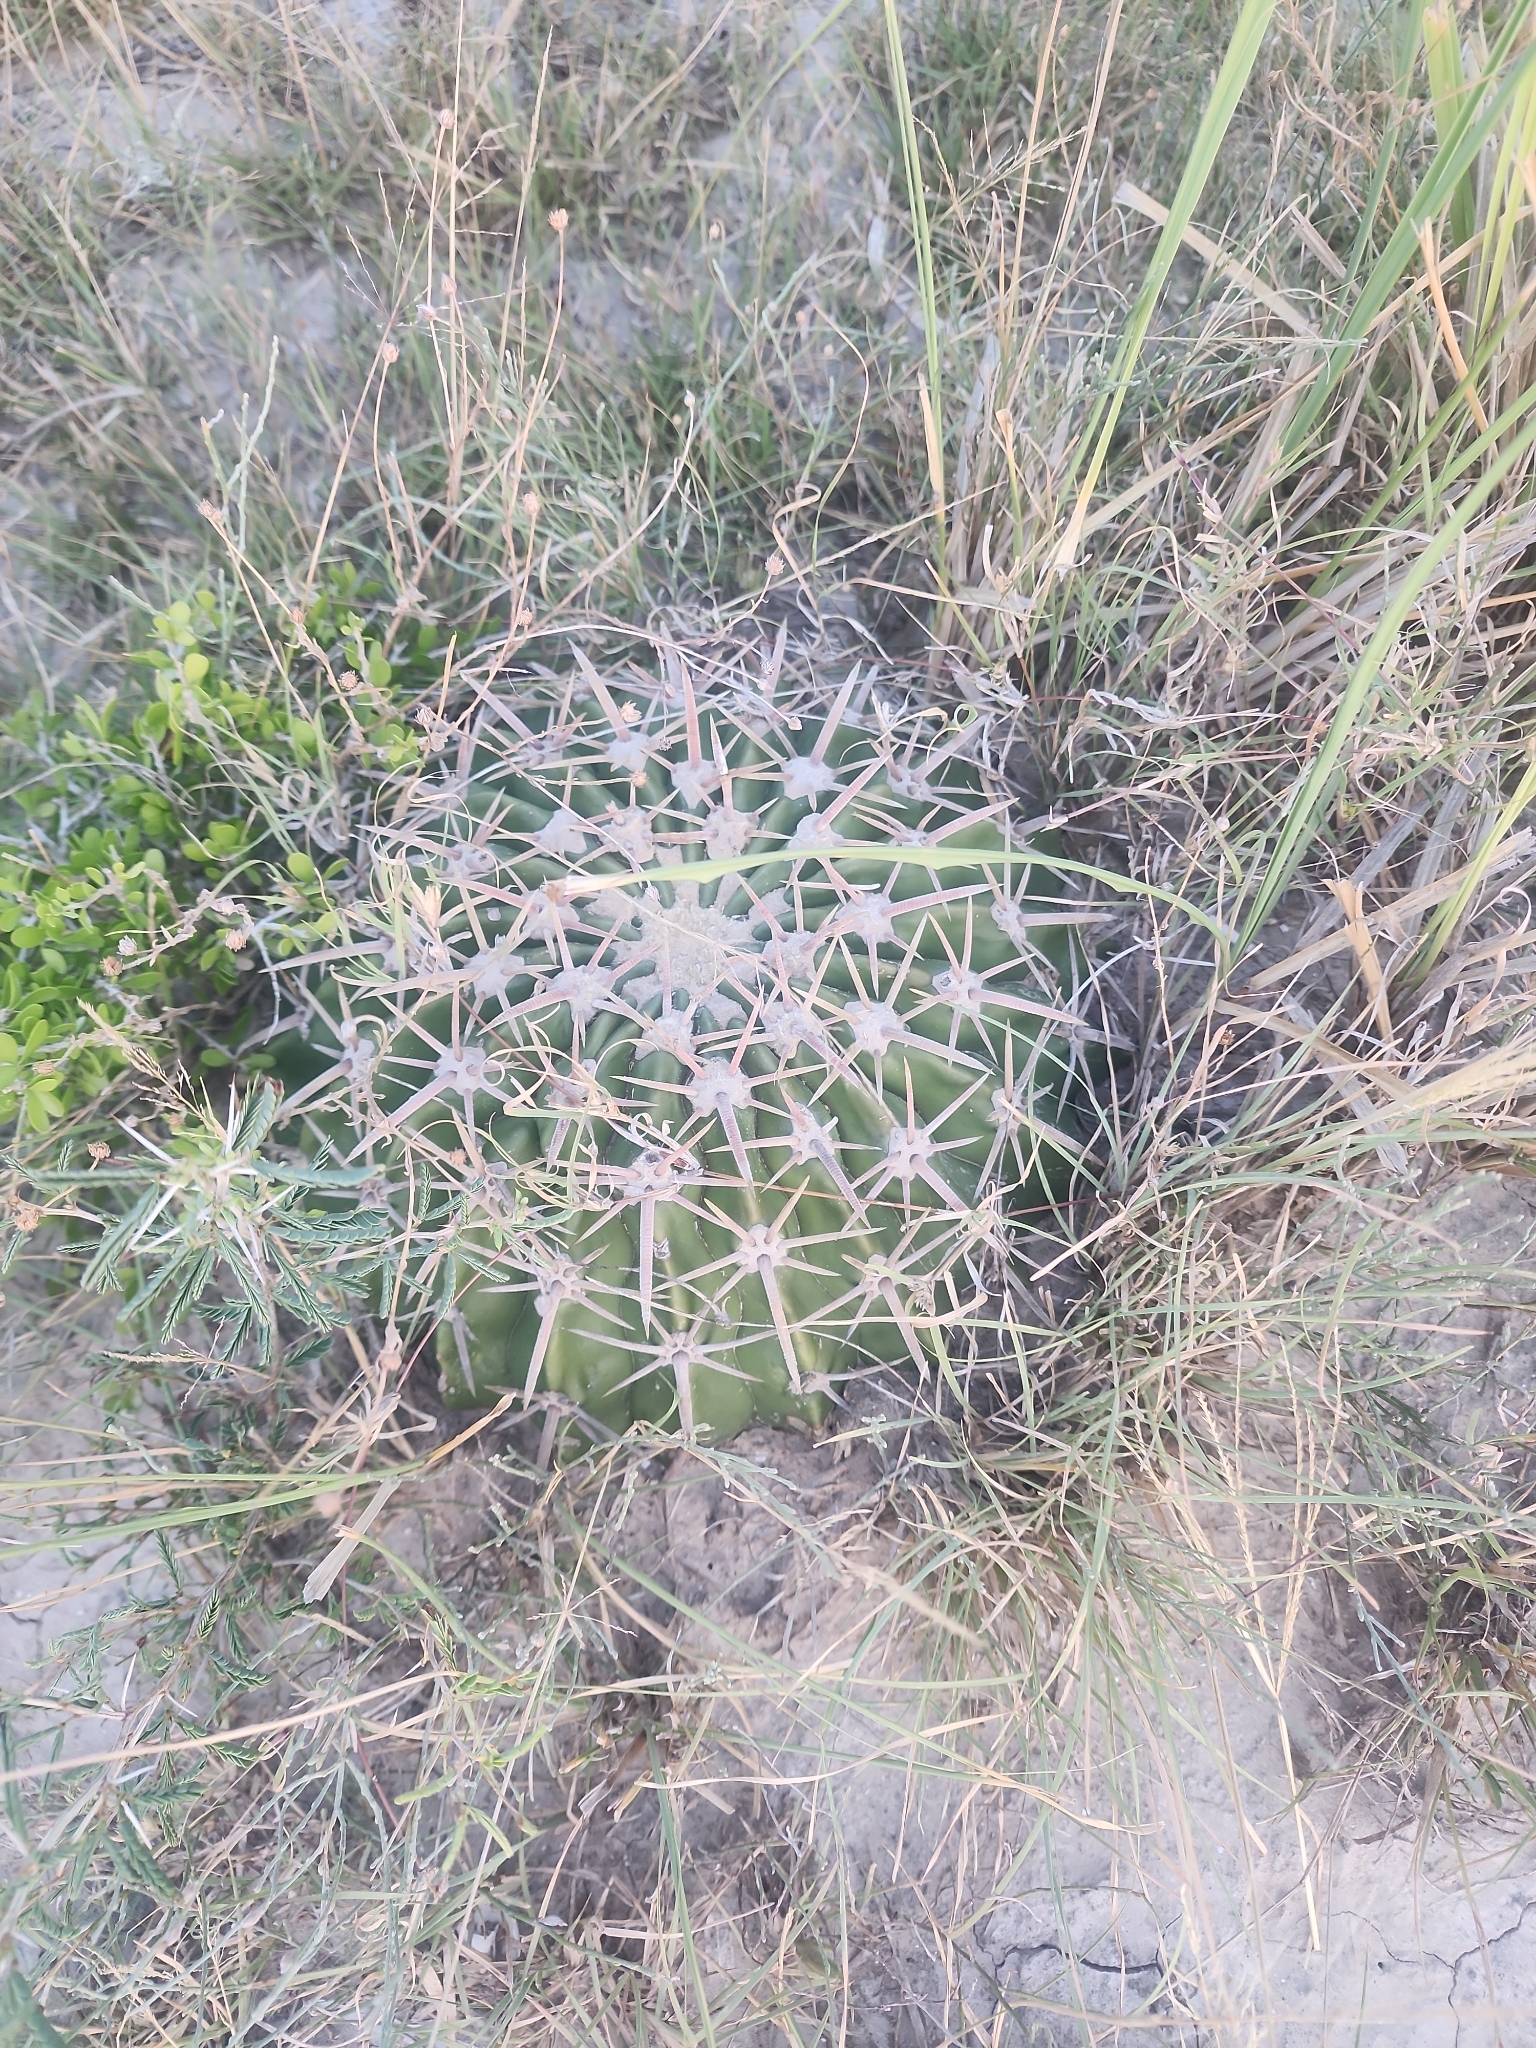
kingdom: Plantae
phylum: Tracheophyta
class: Magnoliopsida
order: Caryophyllales
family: Cactaceae
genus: Echinocactus
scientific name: Echinocactus texensis
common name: Devil's pincushion
